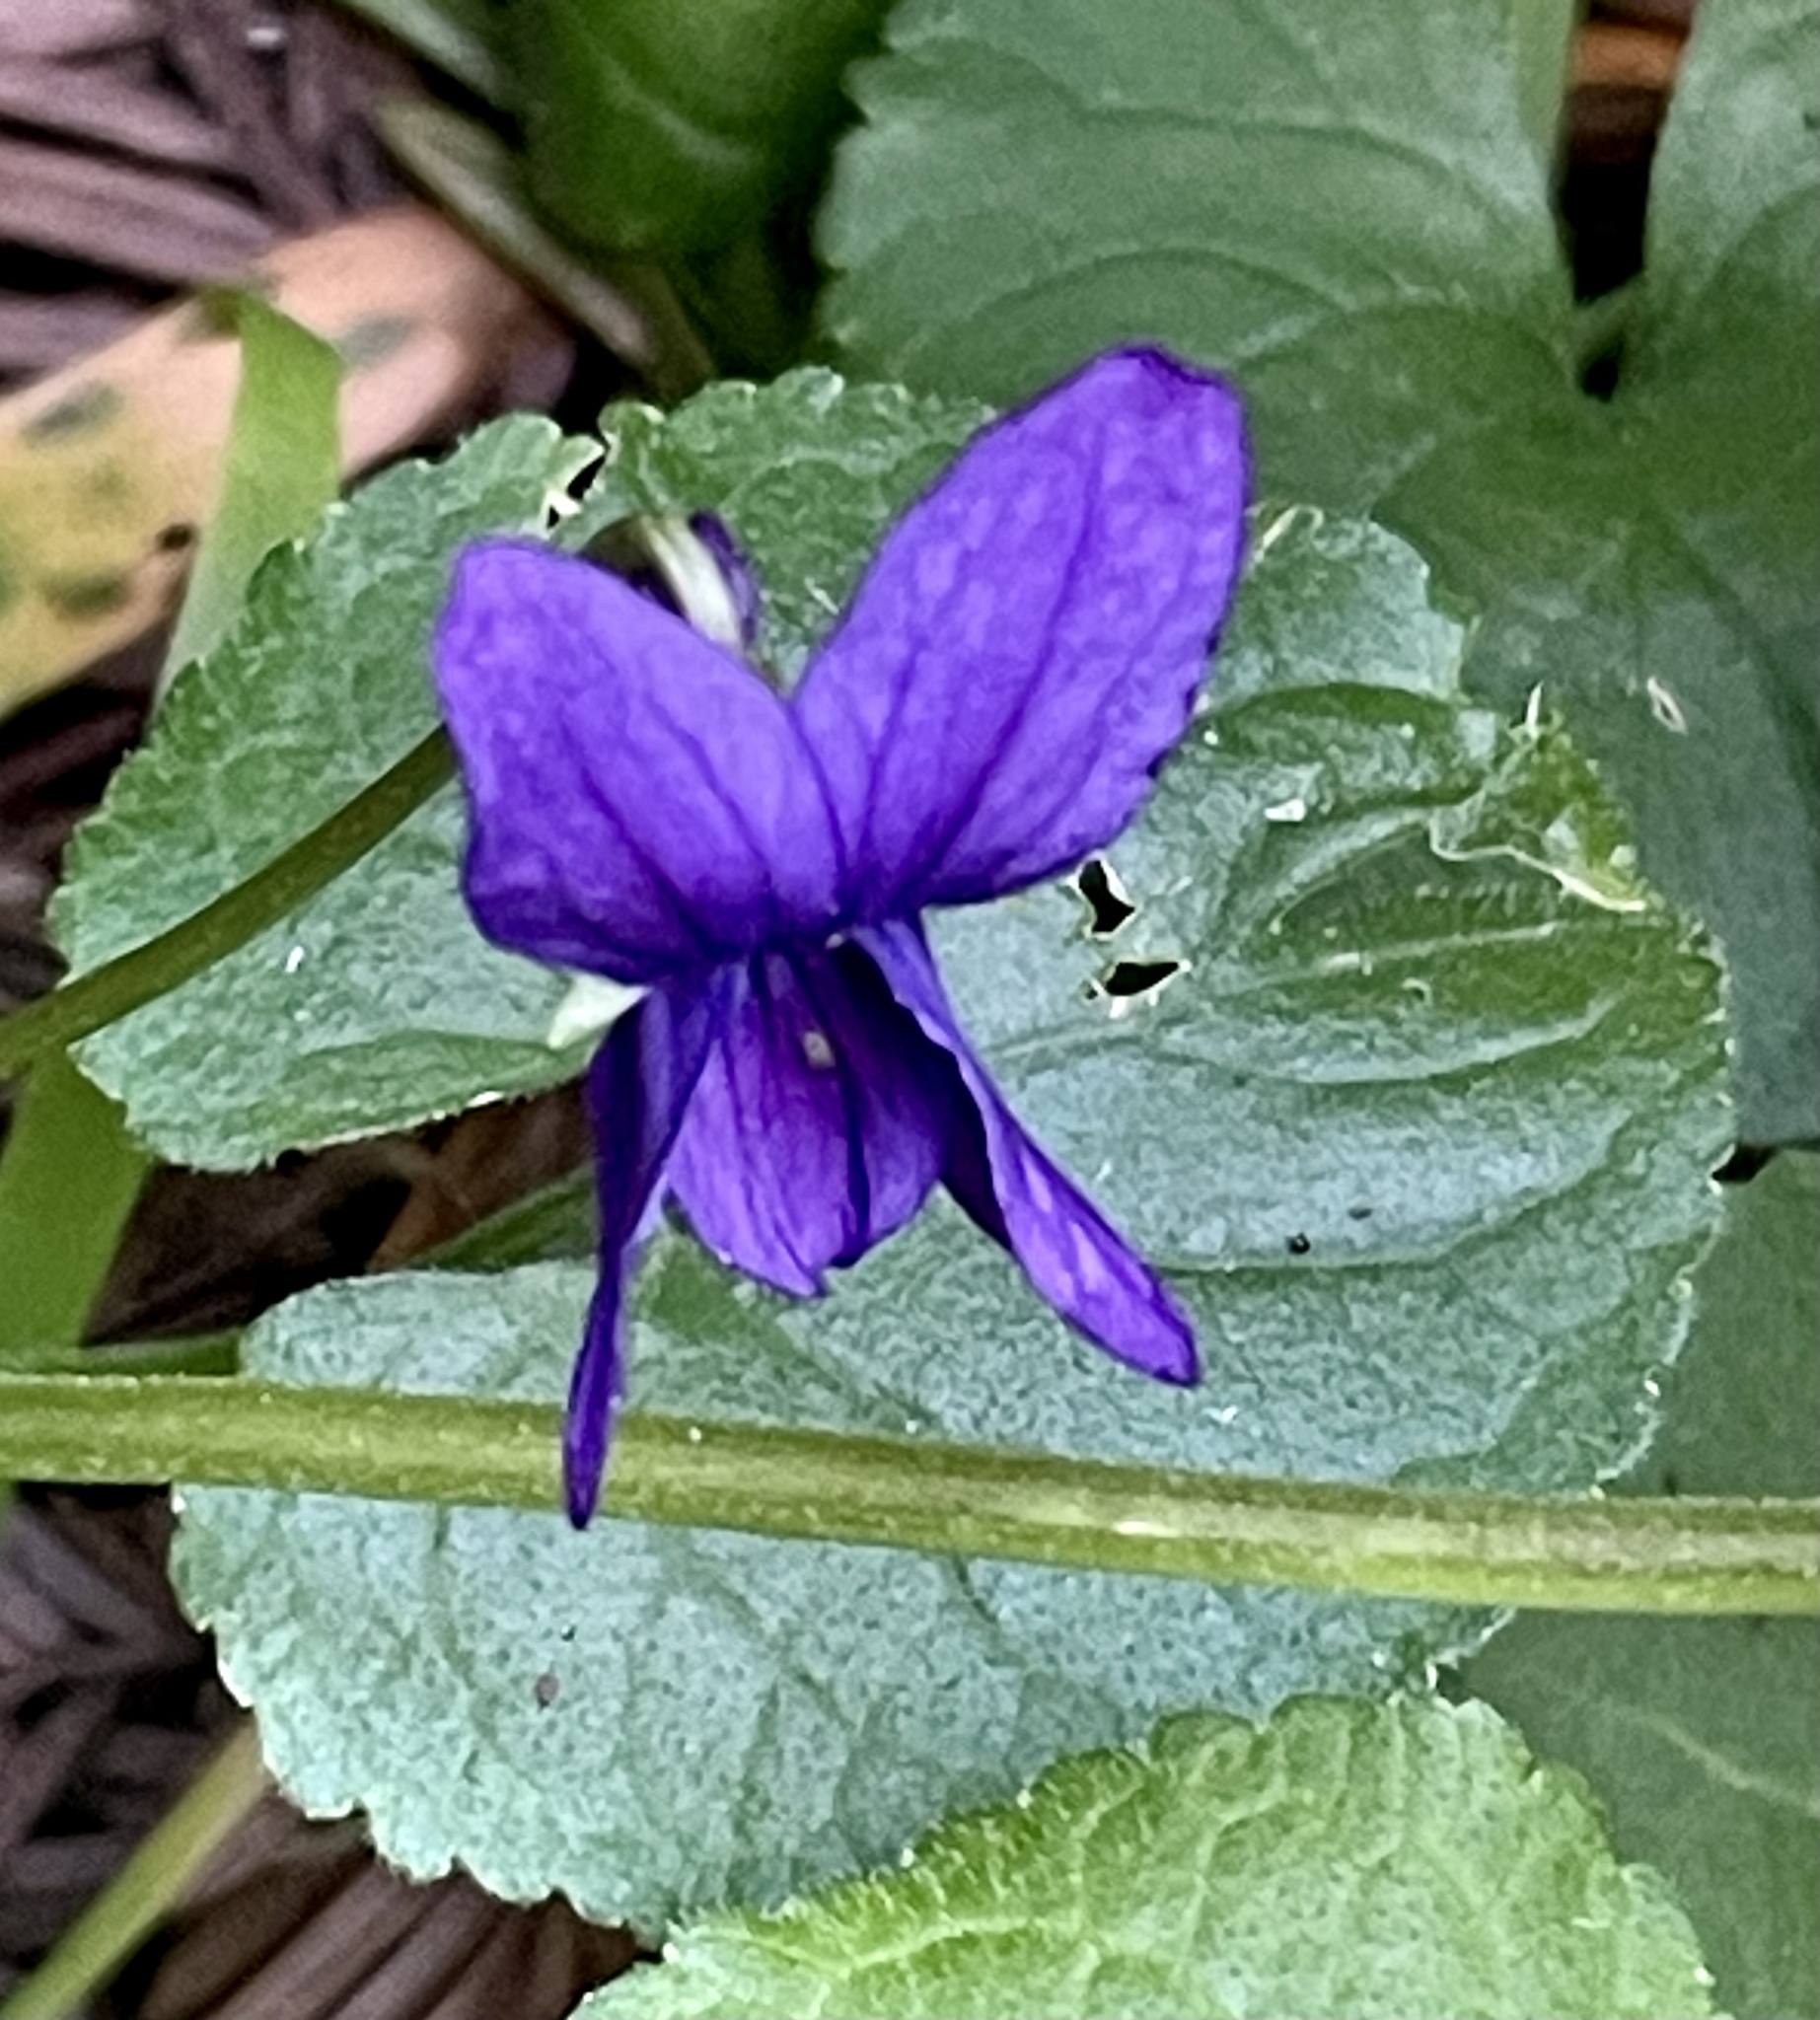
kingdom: Plantae
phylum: Tracheophyta
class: Magnoliopsida
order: Malpighiales
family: Violaceae
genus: Viola
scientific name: Viola odorata
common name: Sweet violet
